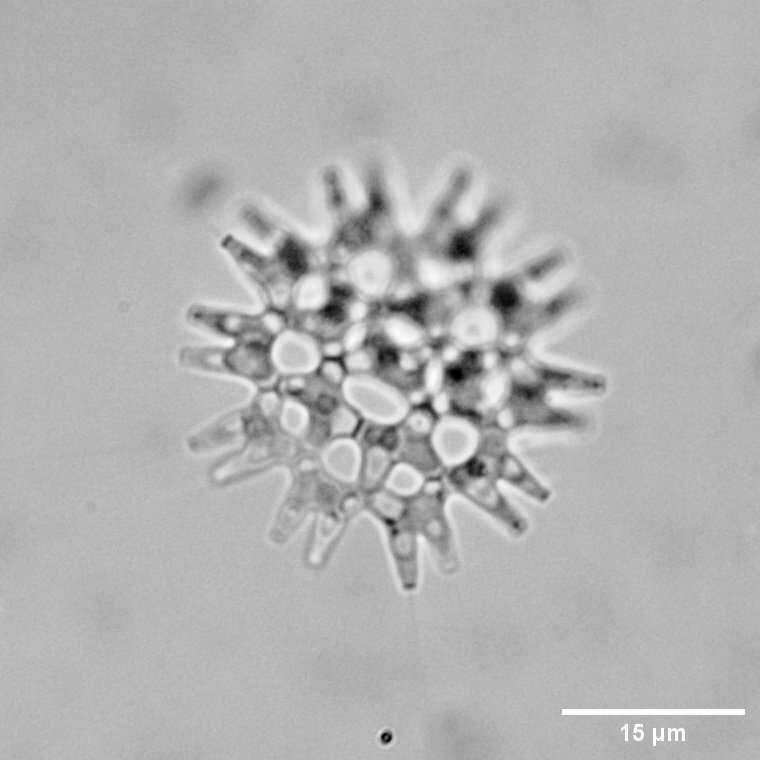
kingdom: Plantae
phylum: Chlorophyta
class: Chlorophyceae
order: Sphaeropleales
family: Hydrodictyaceae
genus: Pediastrum
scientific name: Pediastrum duplex
